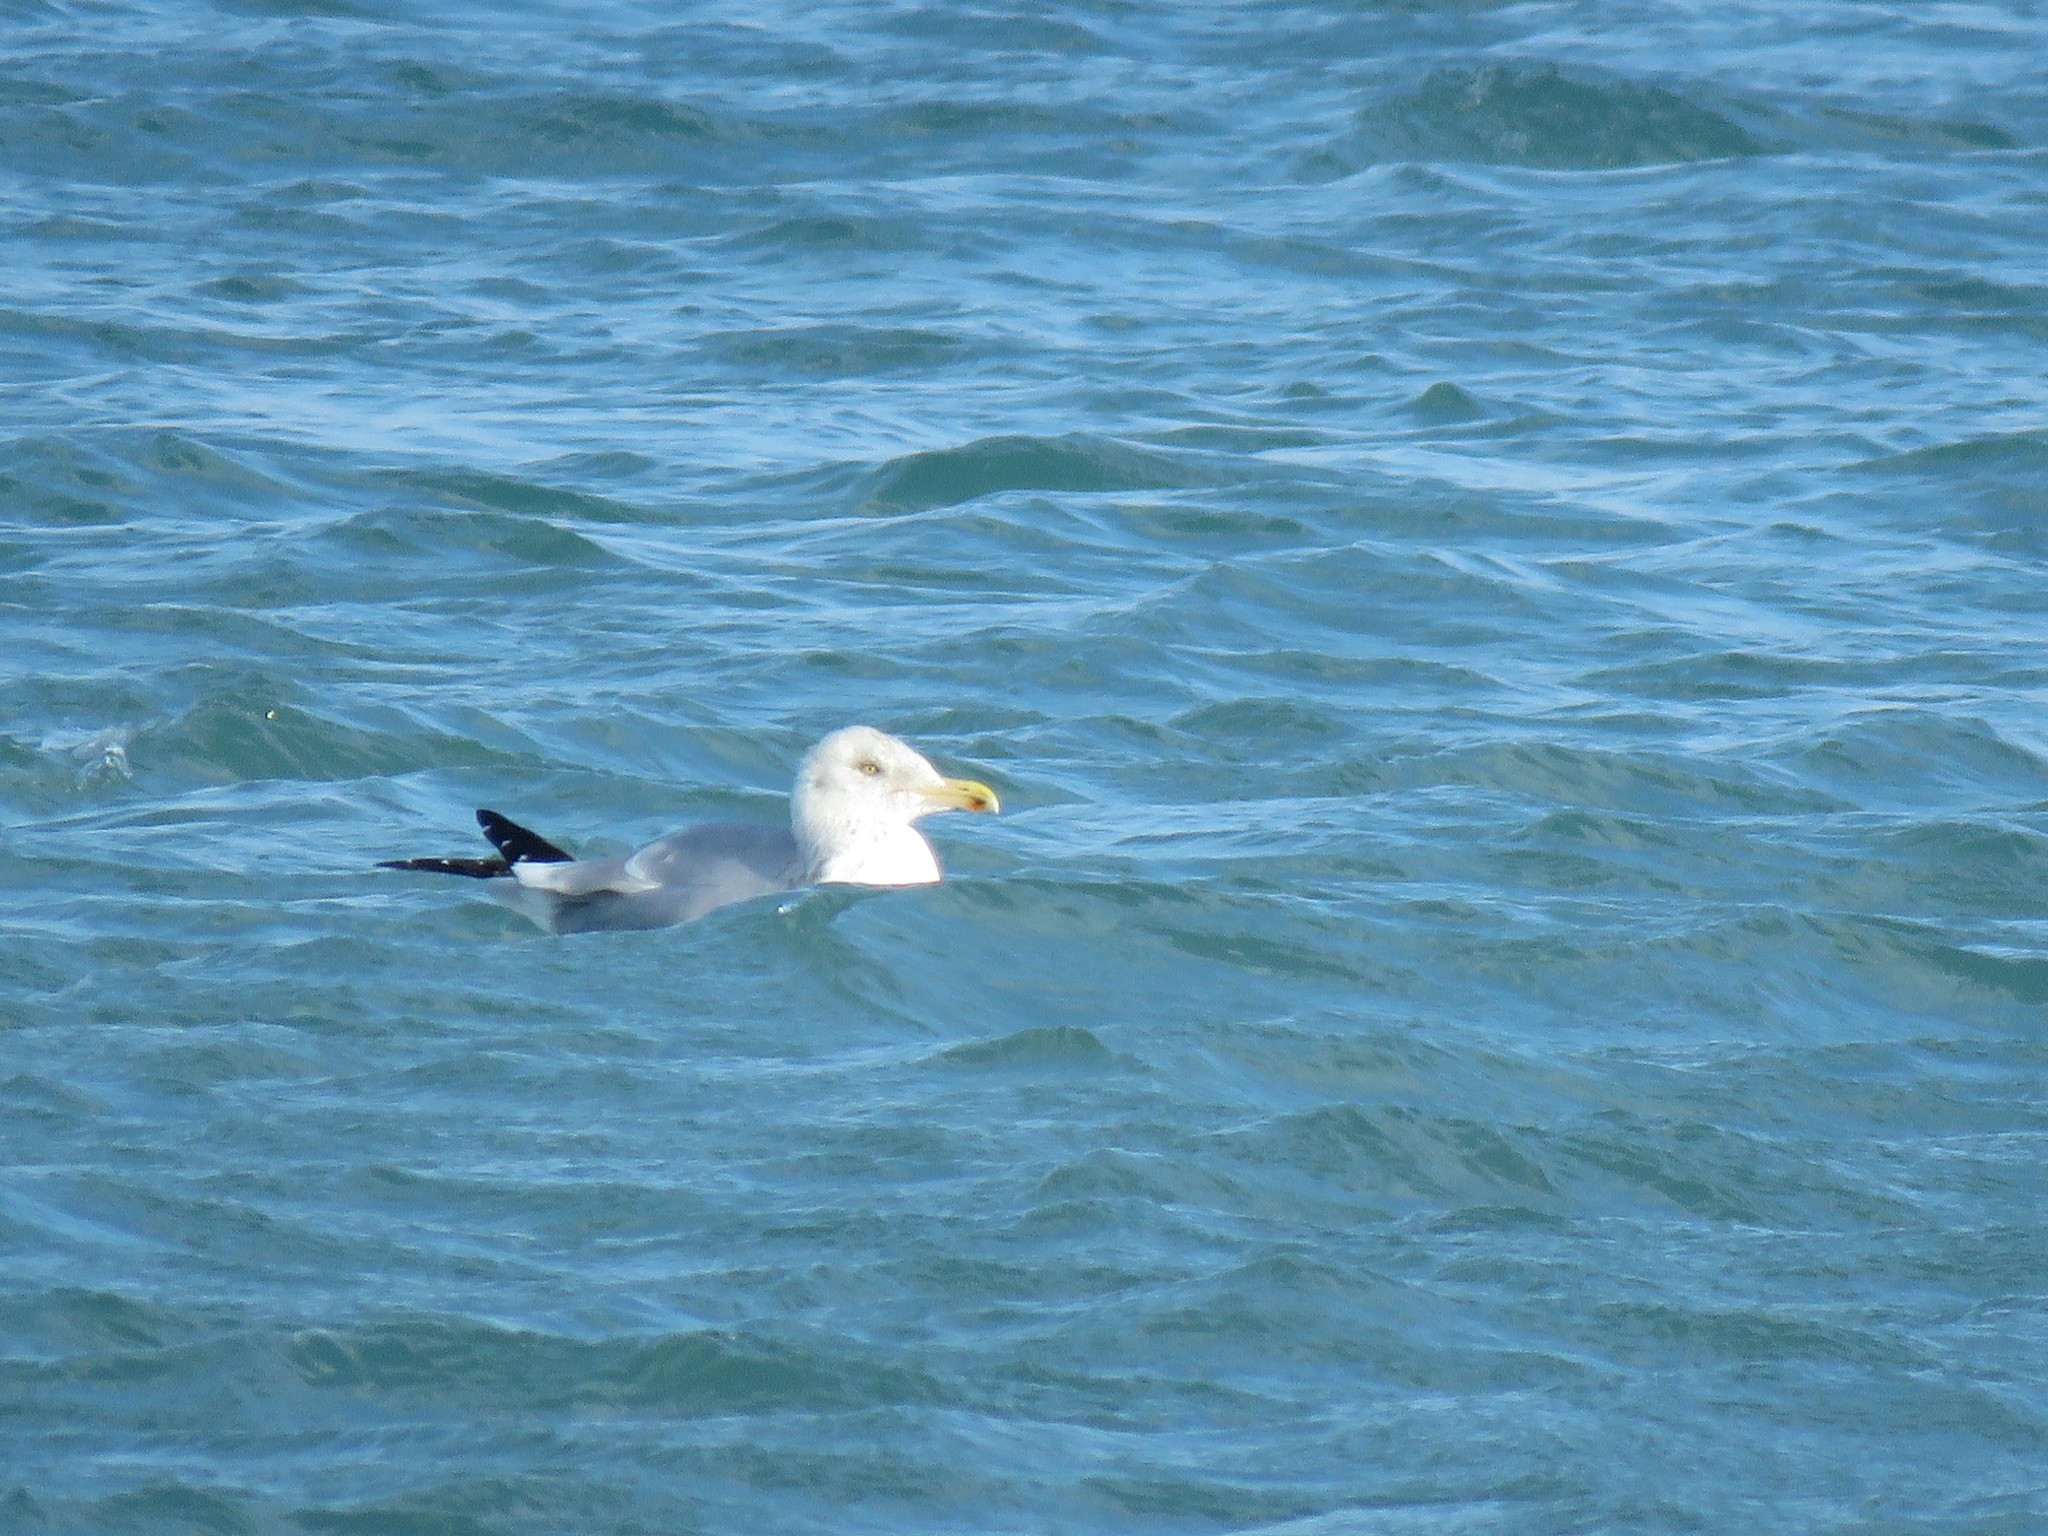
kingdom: Animalia
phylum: Chordata
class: Aves
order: Charadriiformes
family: Laridae
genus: Larus
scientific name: Larus argentatus
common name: Herring gull
